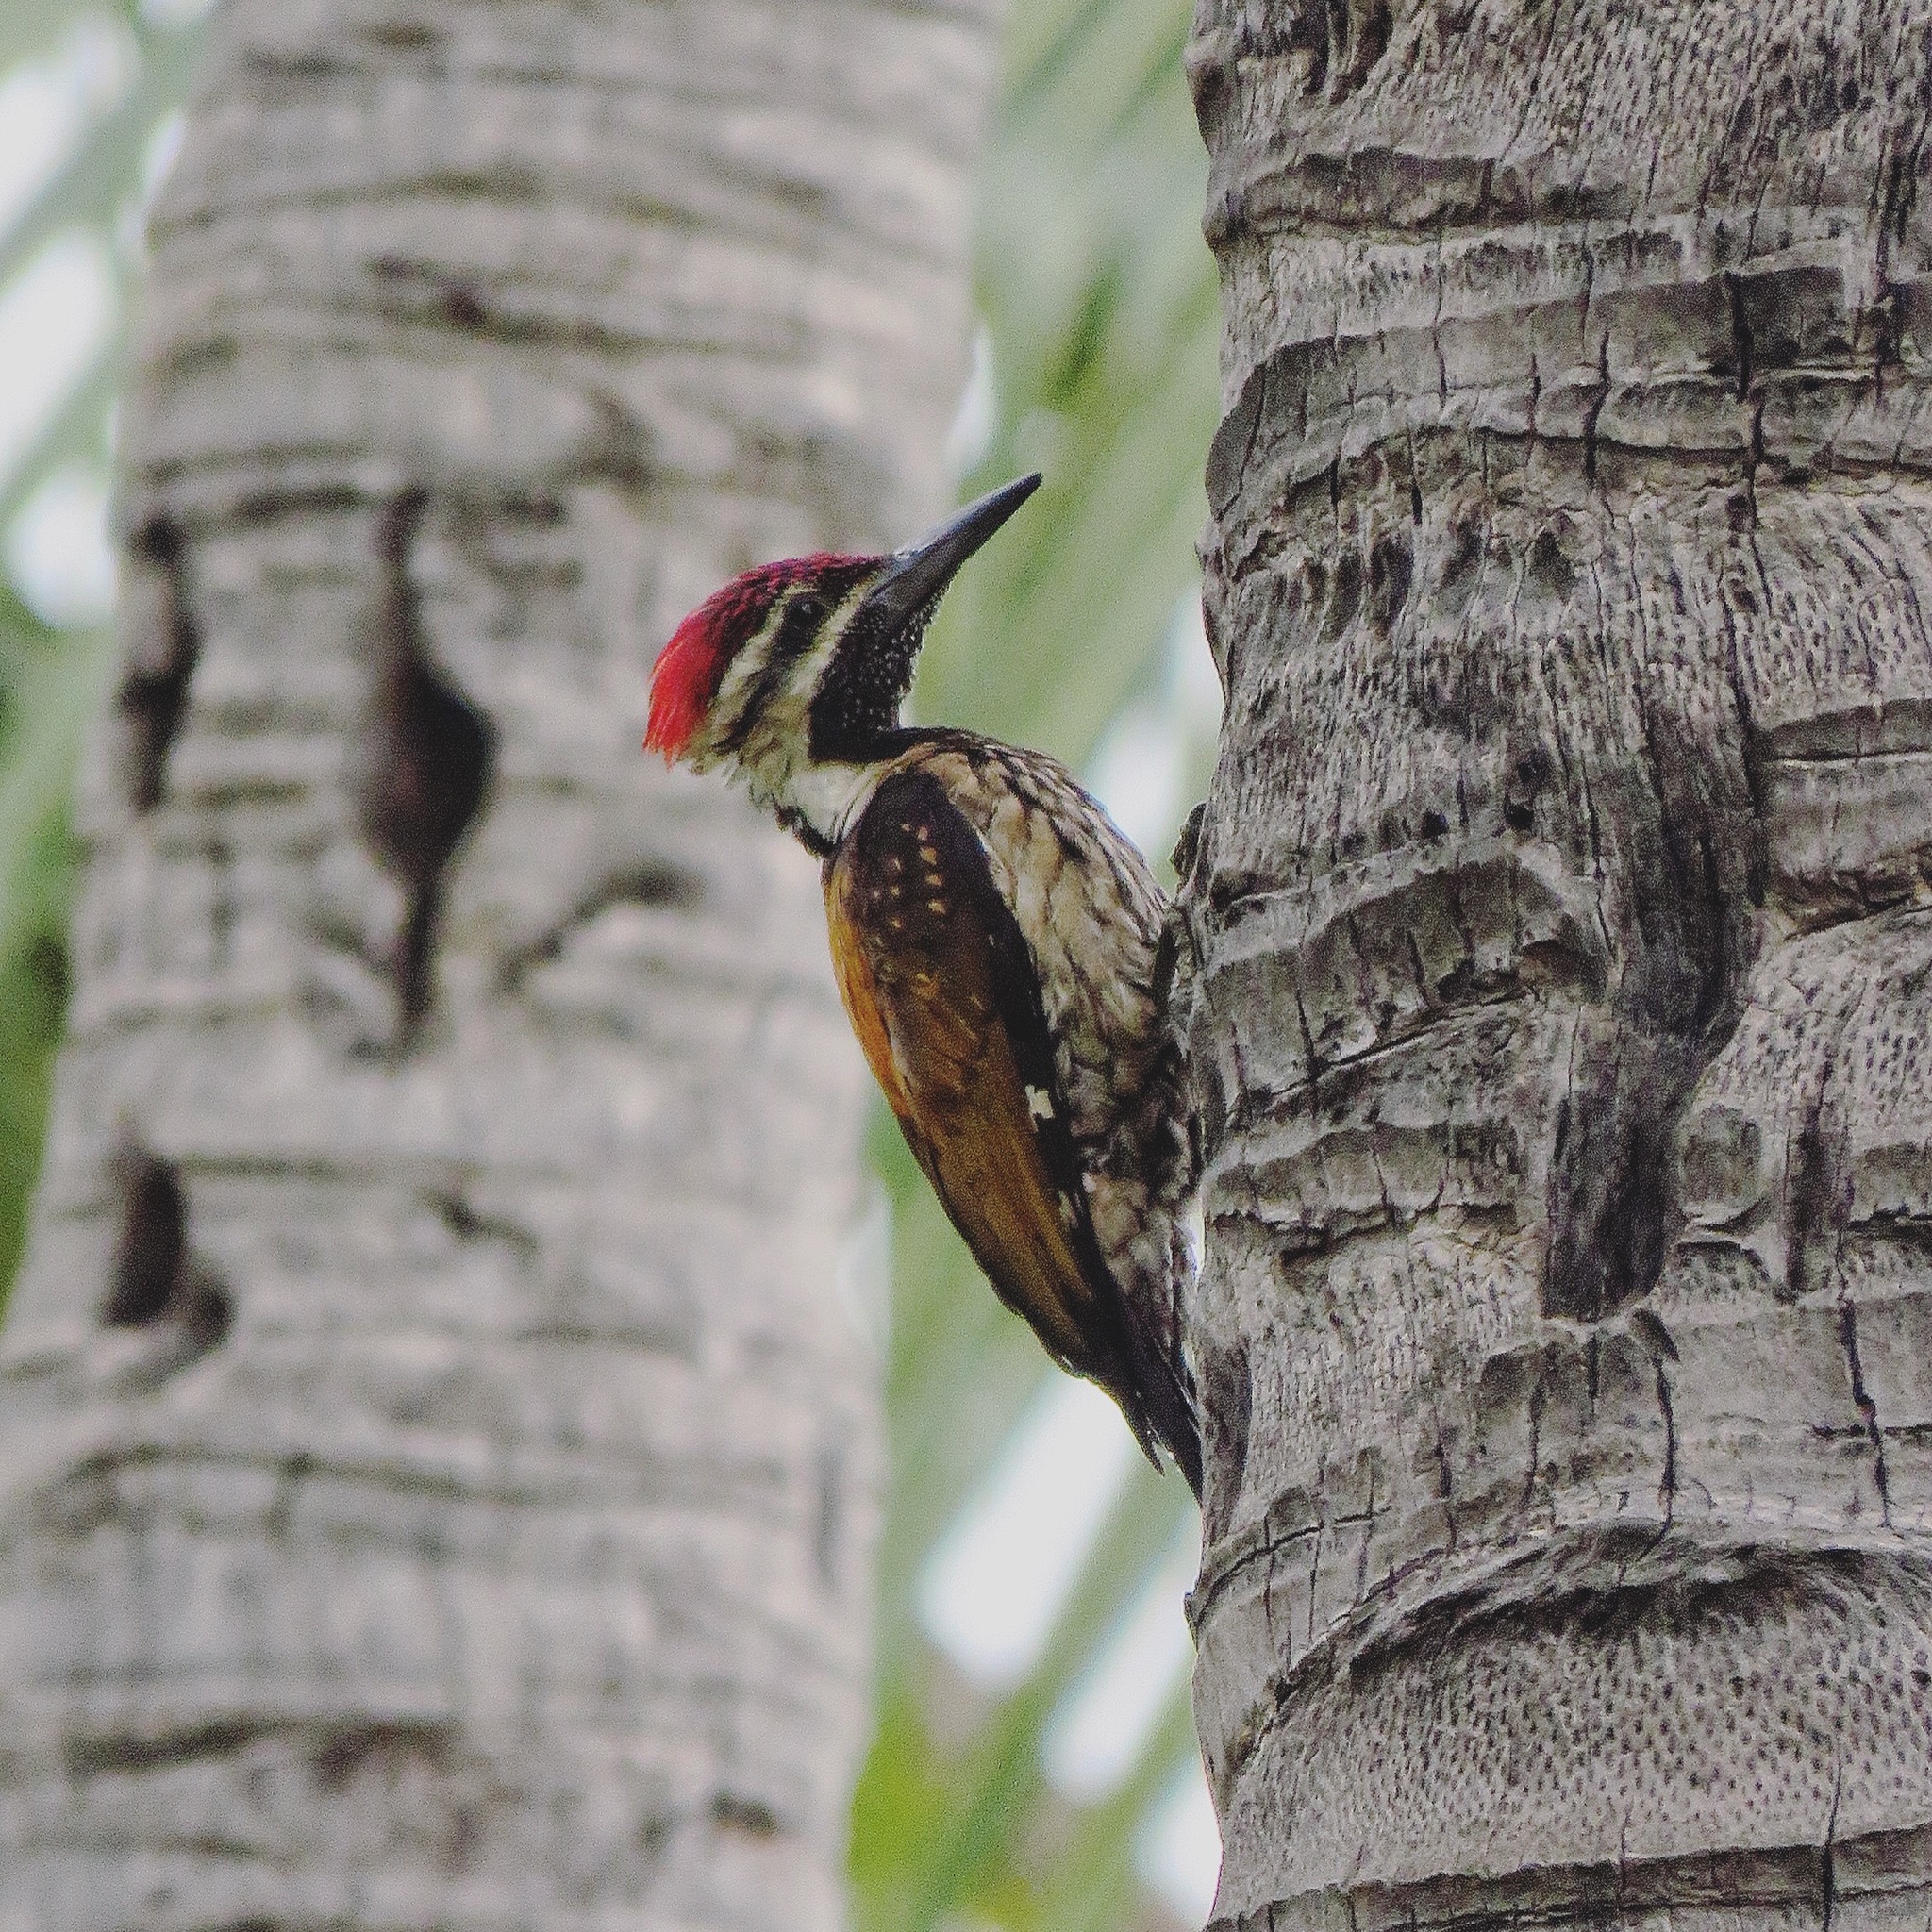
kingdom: Animalia
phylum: Chordata
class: Aves
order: Piciformes
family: Picidae
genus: Dinopium
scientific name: Dinopium benghalense
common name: Black-rumped flameback
